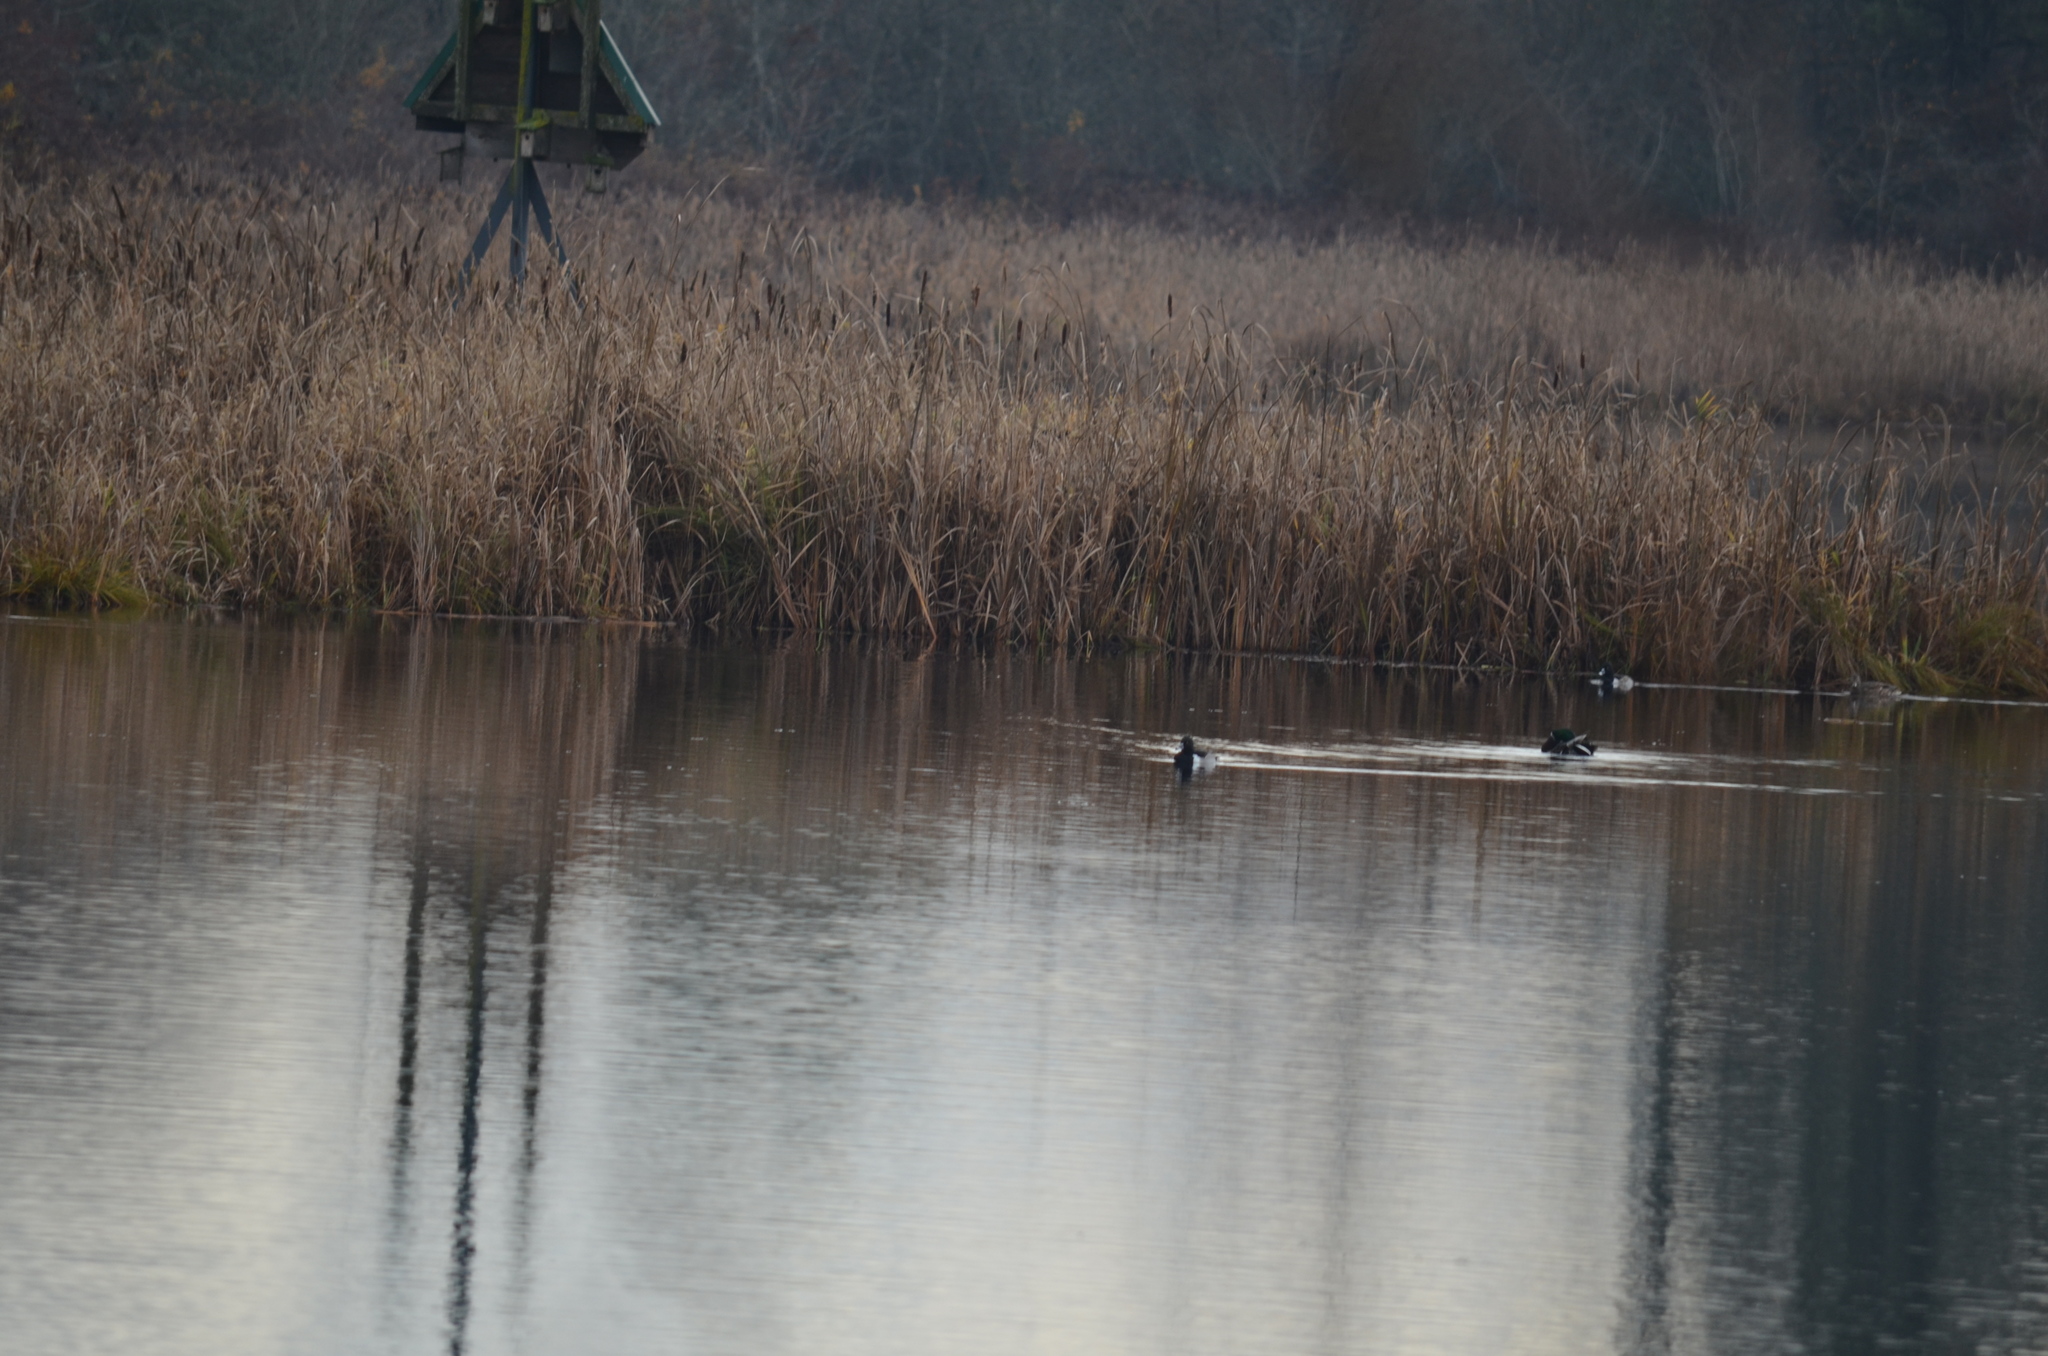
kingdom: Animalia
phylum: Chordata
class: Aves
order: Anseriformes
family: Anatidae
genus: Aythya
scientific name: Aythya collaris
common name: Ring-necked duck
